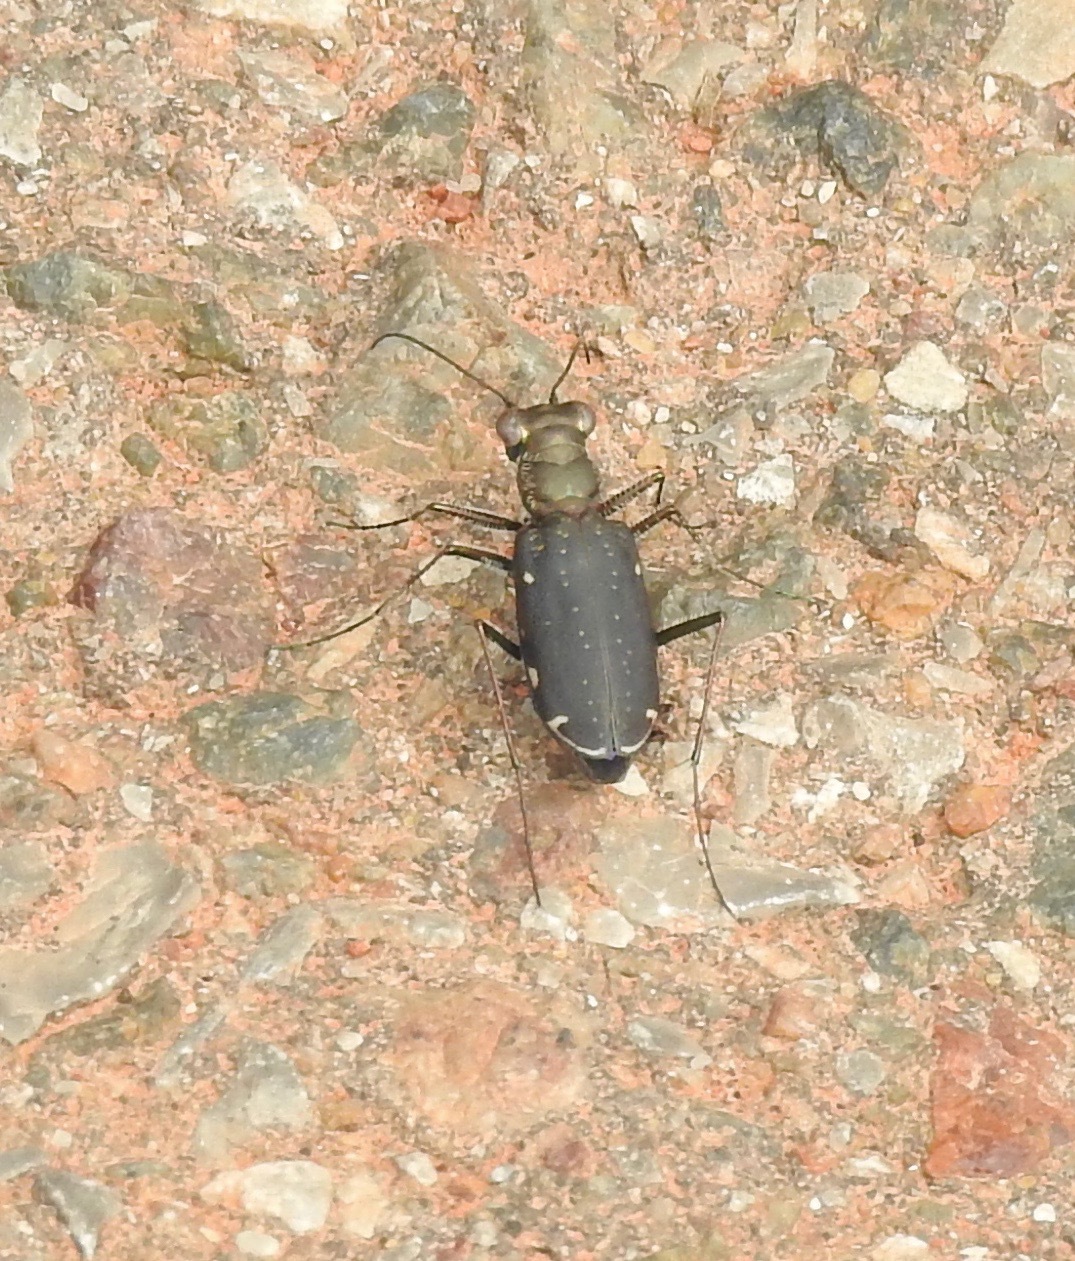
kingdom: Animalia
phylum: Arthropoda
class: Insecta
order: Coleoptera
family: Carabidae
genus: Cicindela
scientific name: Cicindela punctulata
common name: Punctured tiger beetle
